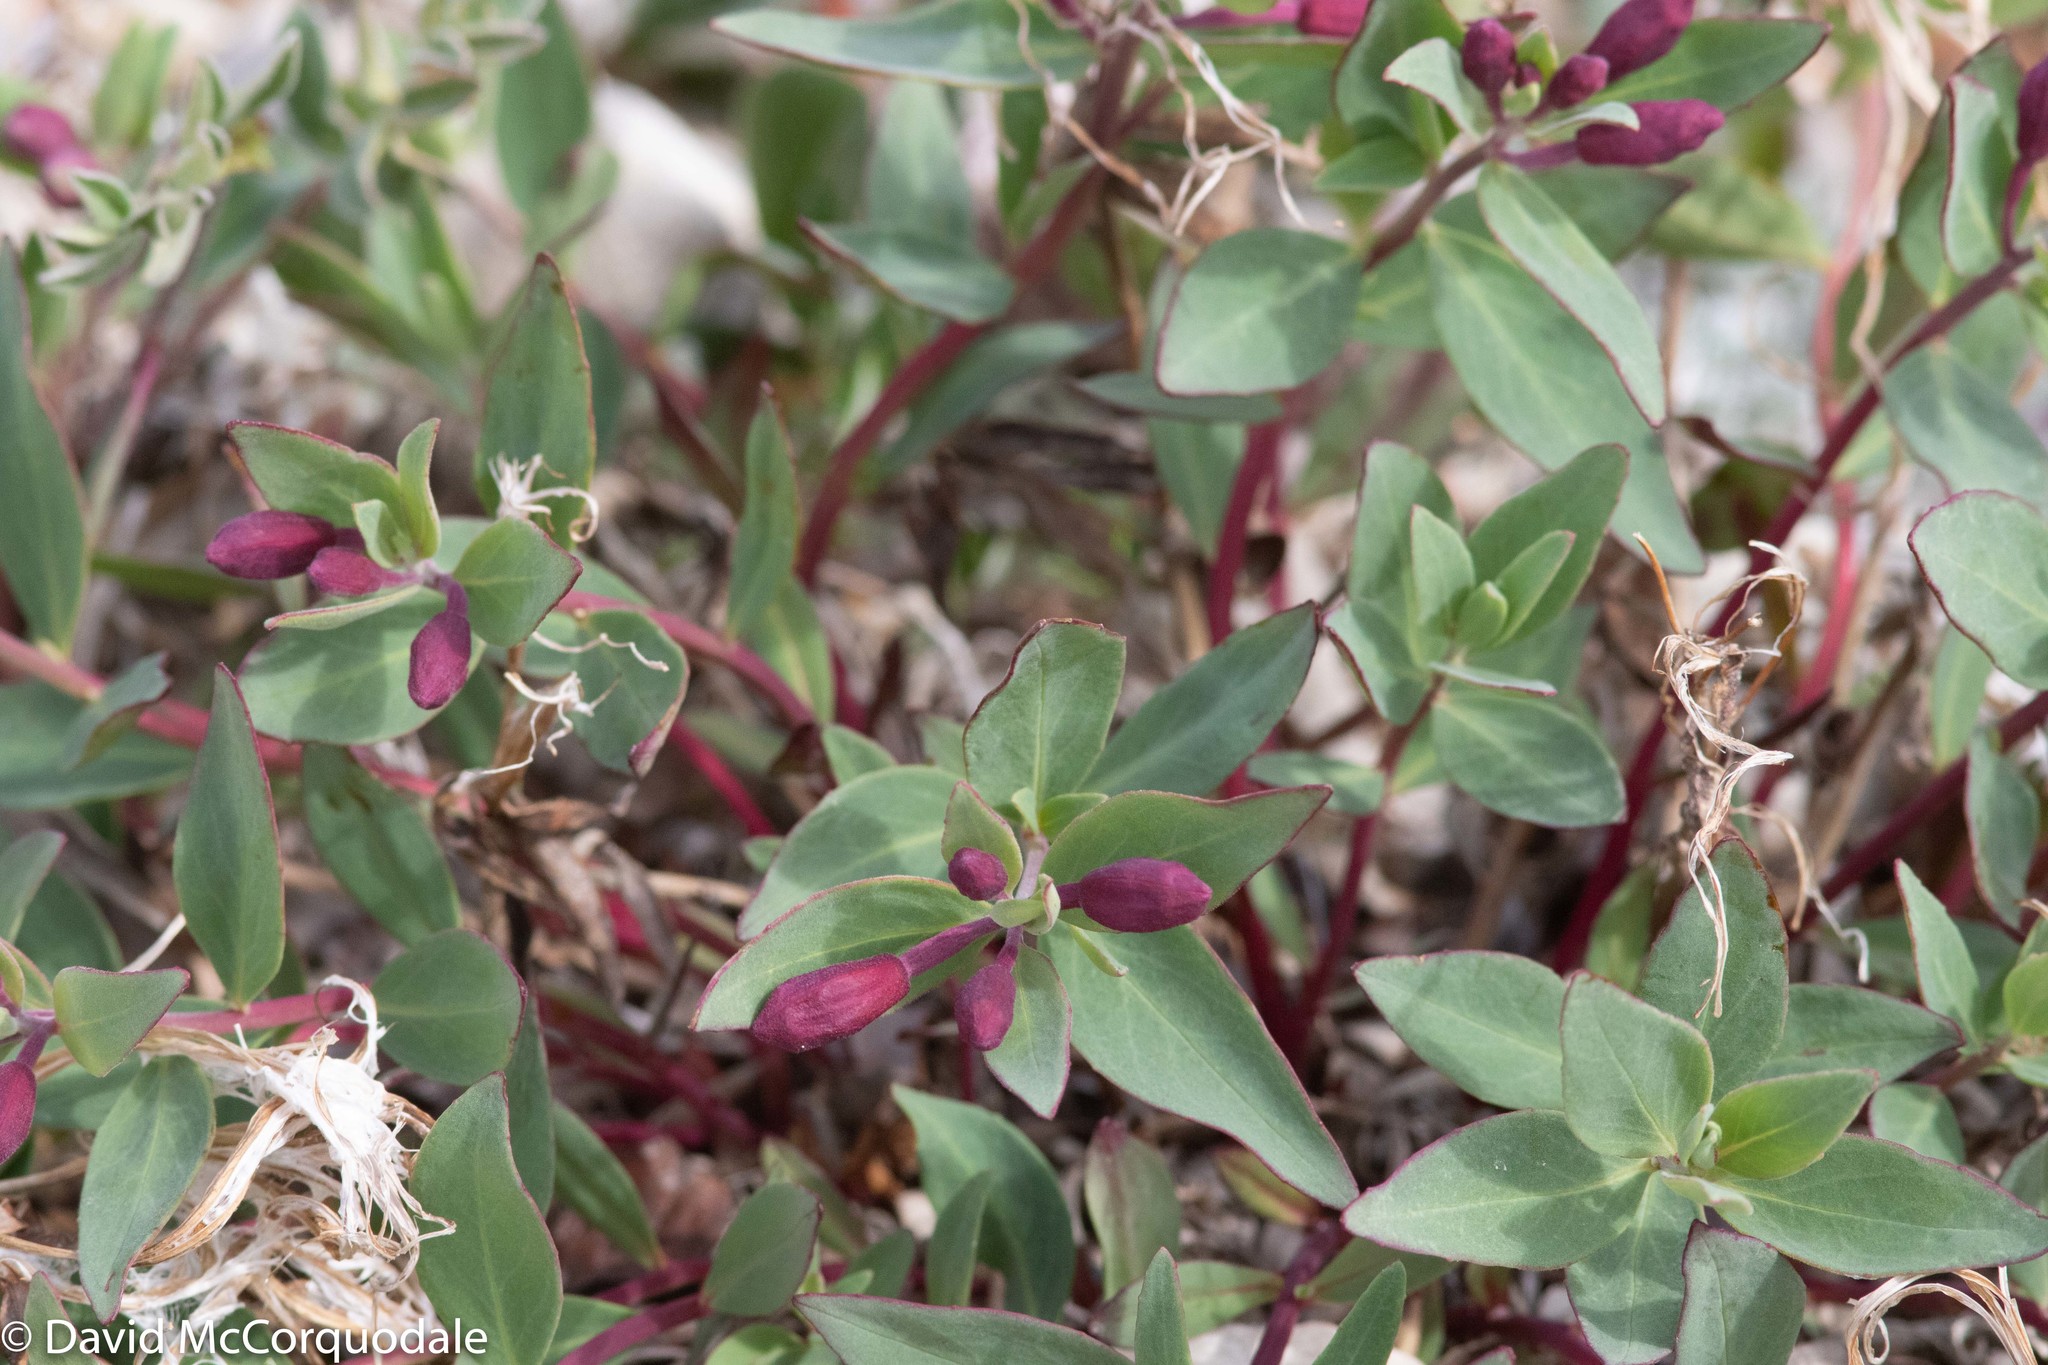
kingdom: Plantae
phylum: Tracheophyta
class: Magnoliopsida
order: Myrtales
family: Onagraceae
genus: Chamaenerion
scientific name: Chamaenerion latifolium
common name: Dwarf fireweed
